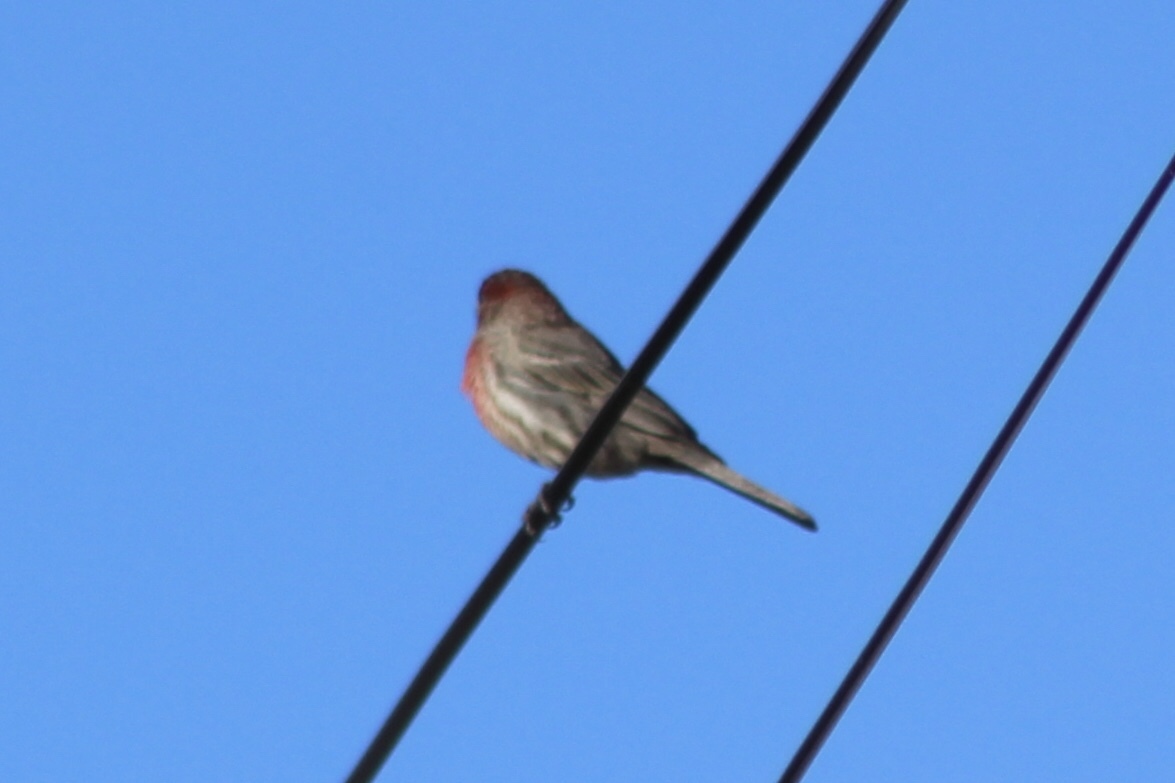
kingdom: Animalia
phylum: Chordata
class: Aves
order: Passeriformes
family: Fringillidae
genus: Haemorhous
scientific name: Haemorhous mexicanus
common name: House finch
